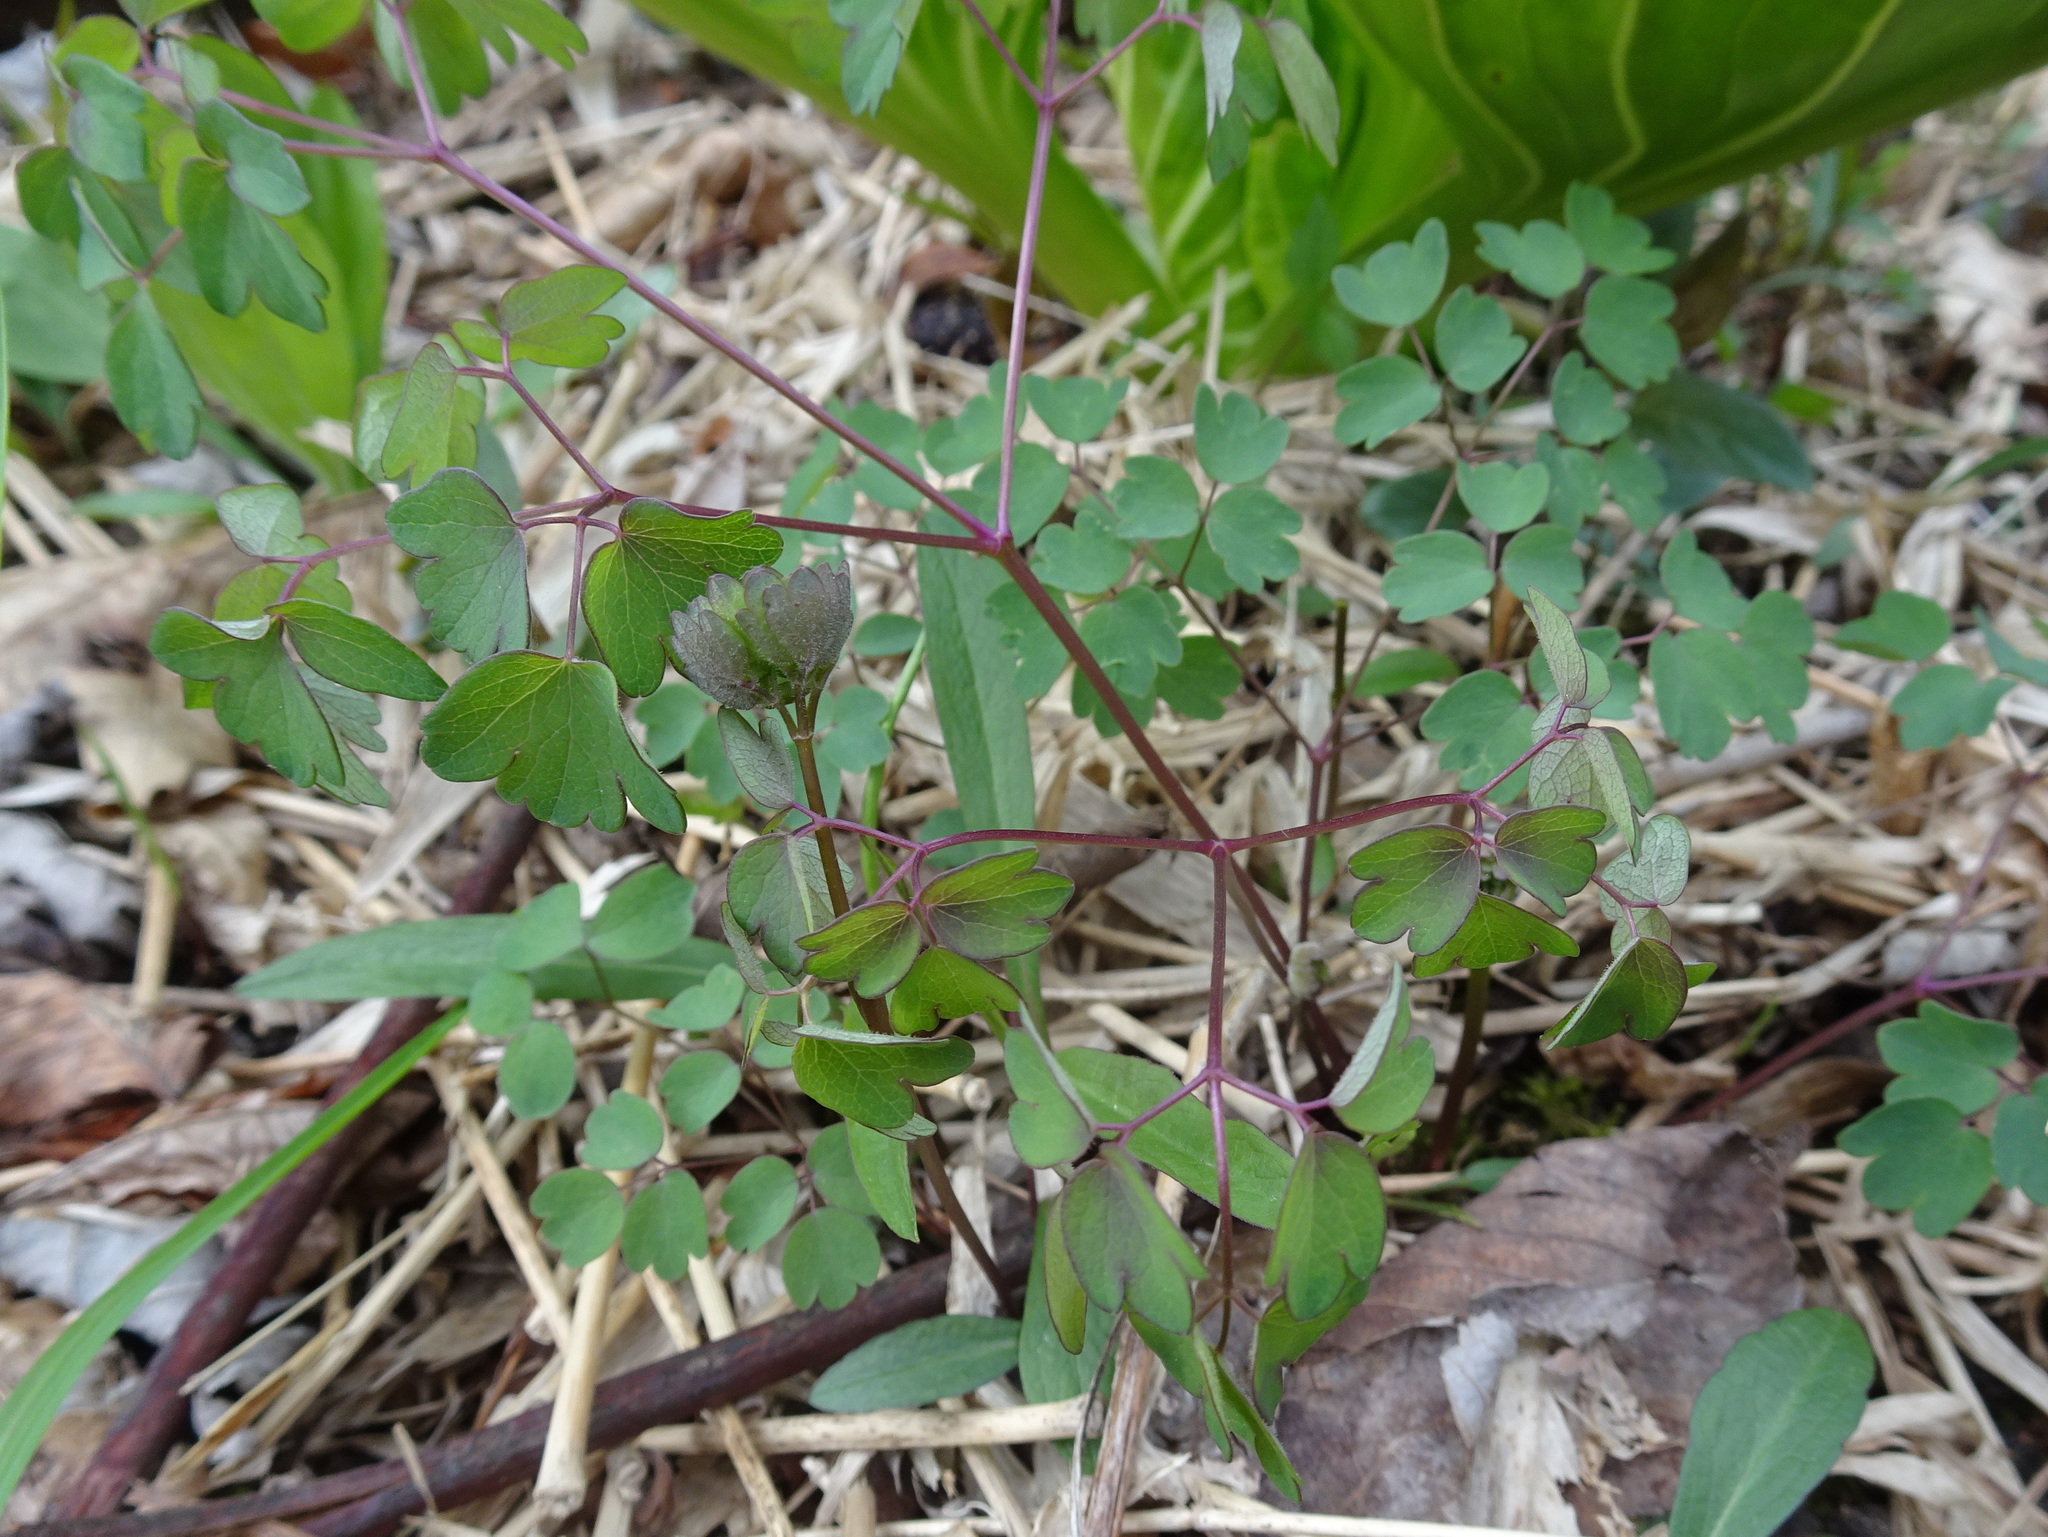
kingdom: Plantae
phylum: Tracheophyta
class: Magnoliopsida
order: Ranunculales
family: Ranunculaceae
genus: Thalictrum
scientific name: Thalictrum dioicum
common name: Early meadow-rue
